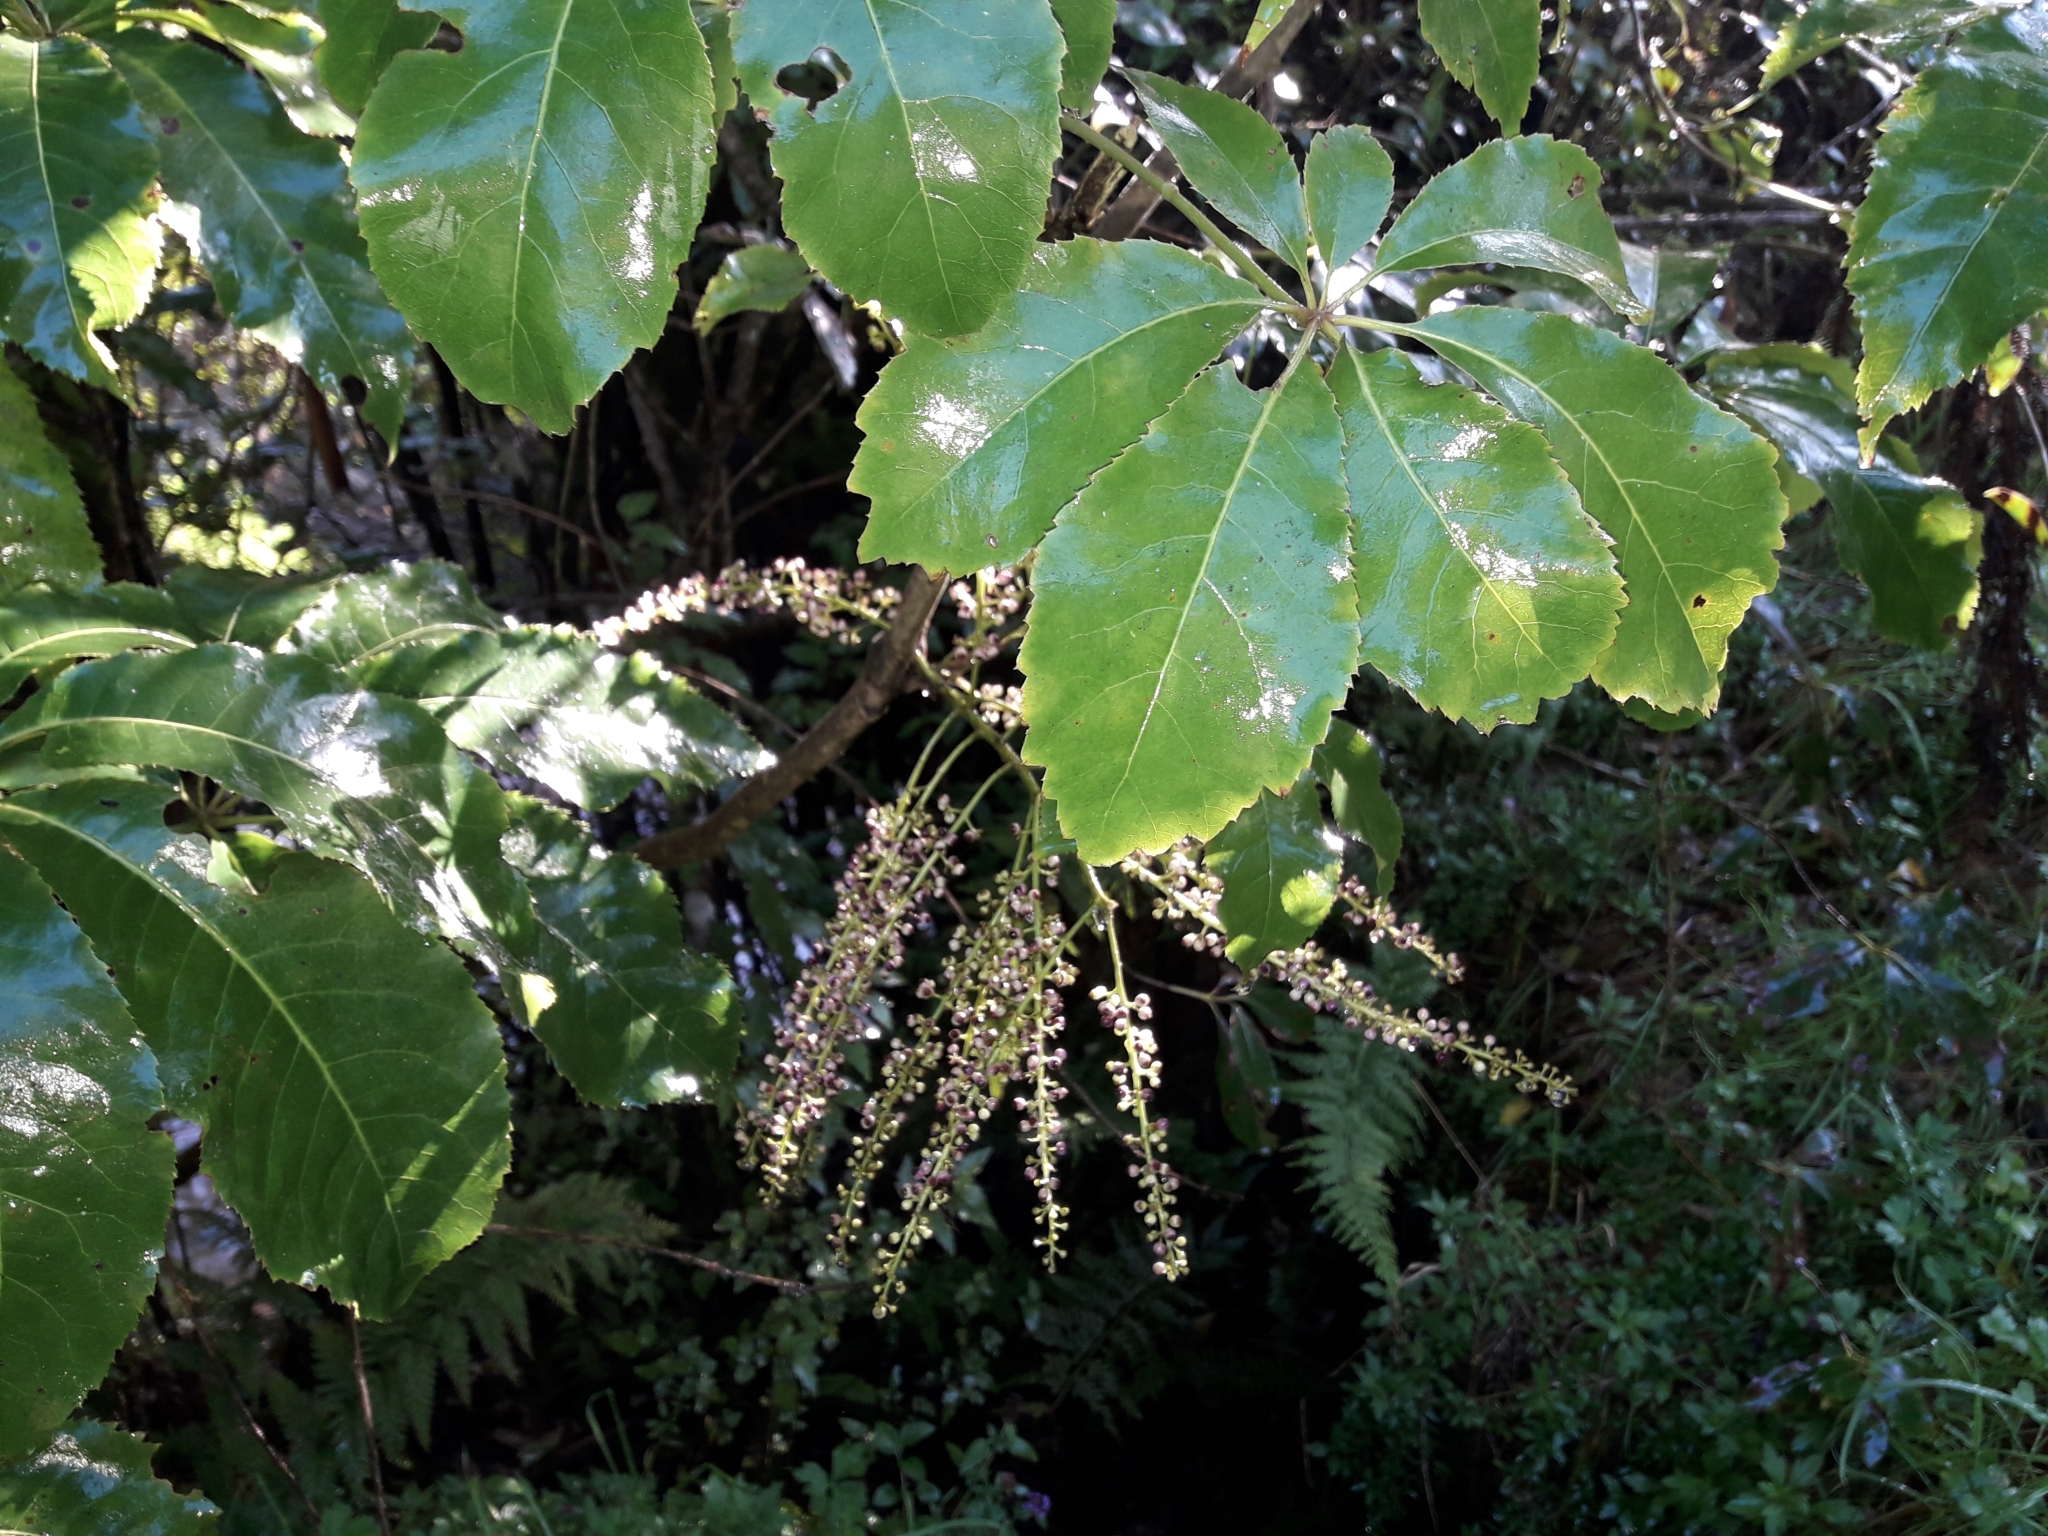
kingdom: Plantae
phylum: Tracheophyta
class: Magnoliopsida
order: Apiales
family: Araliaceae
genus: Schefflera
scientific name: Schefflera digitata
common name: Pate
